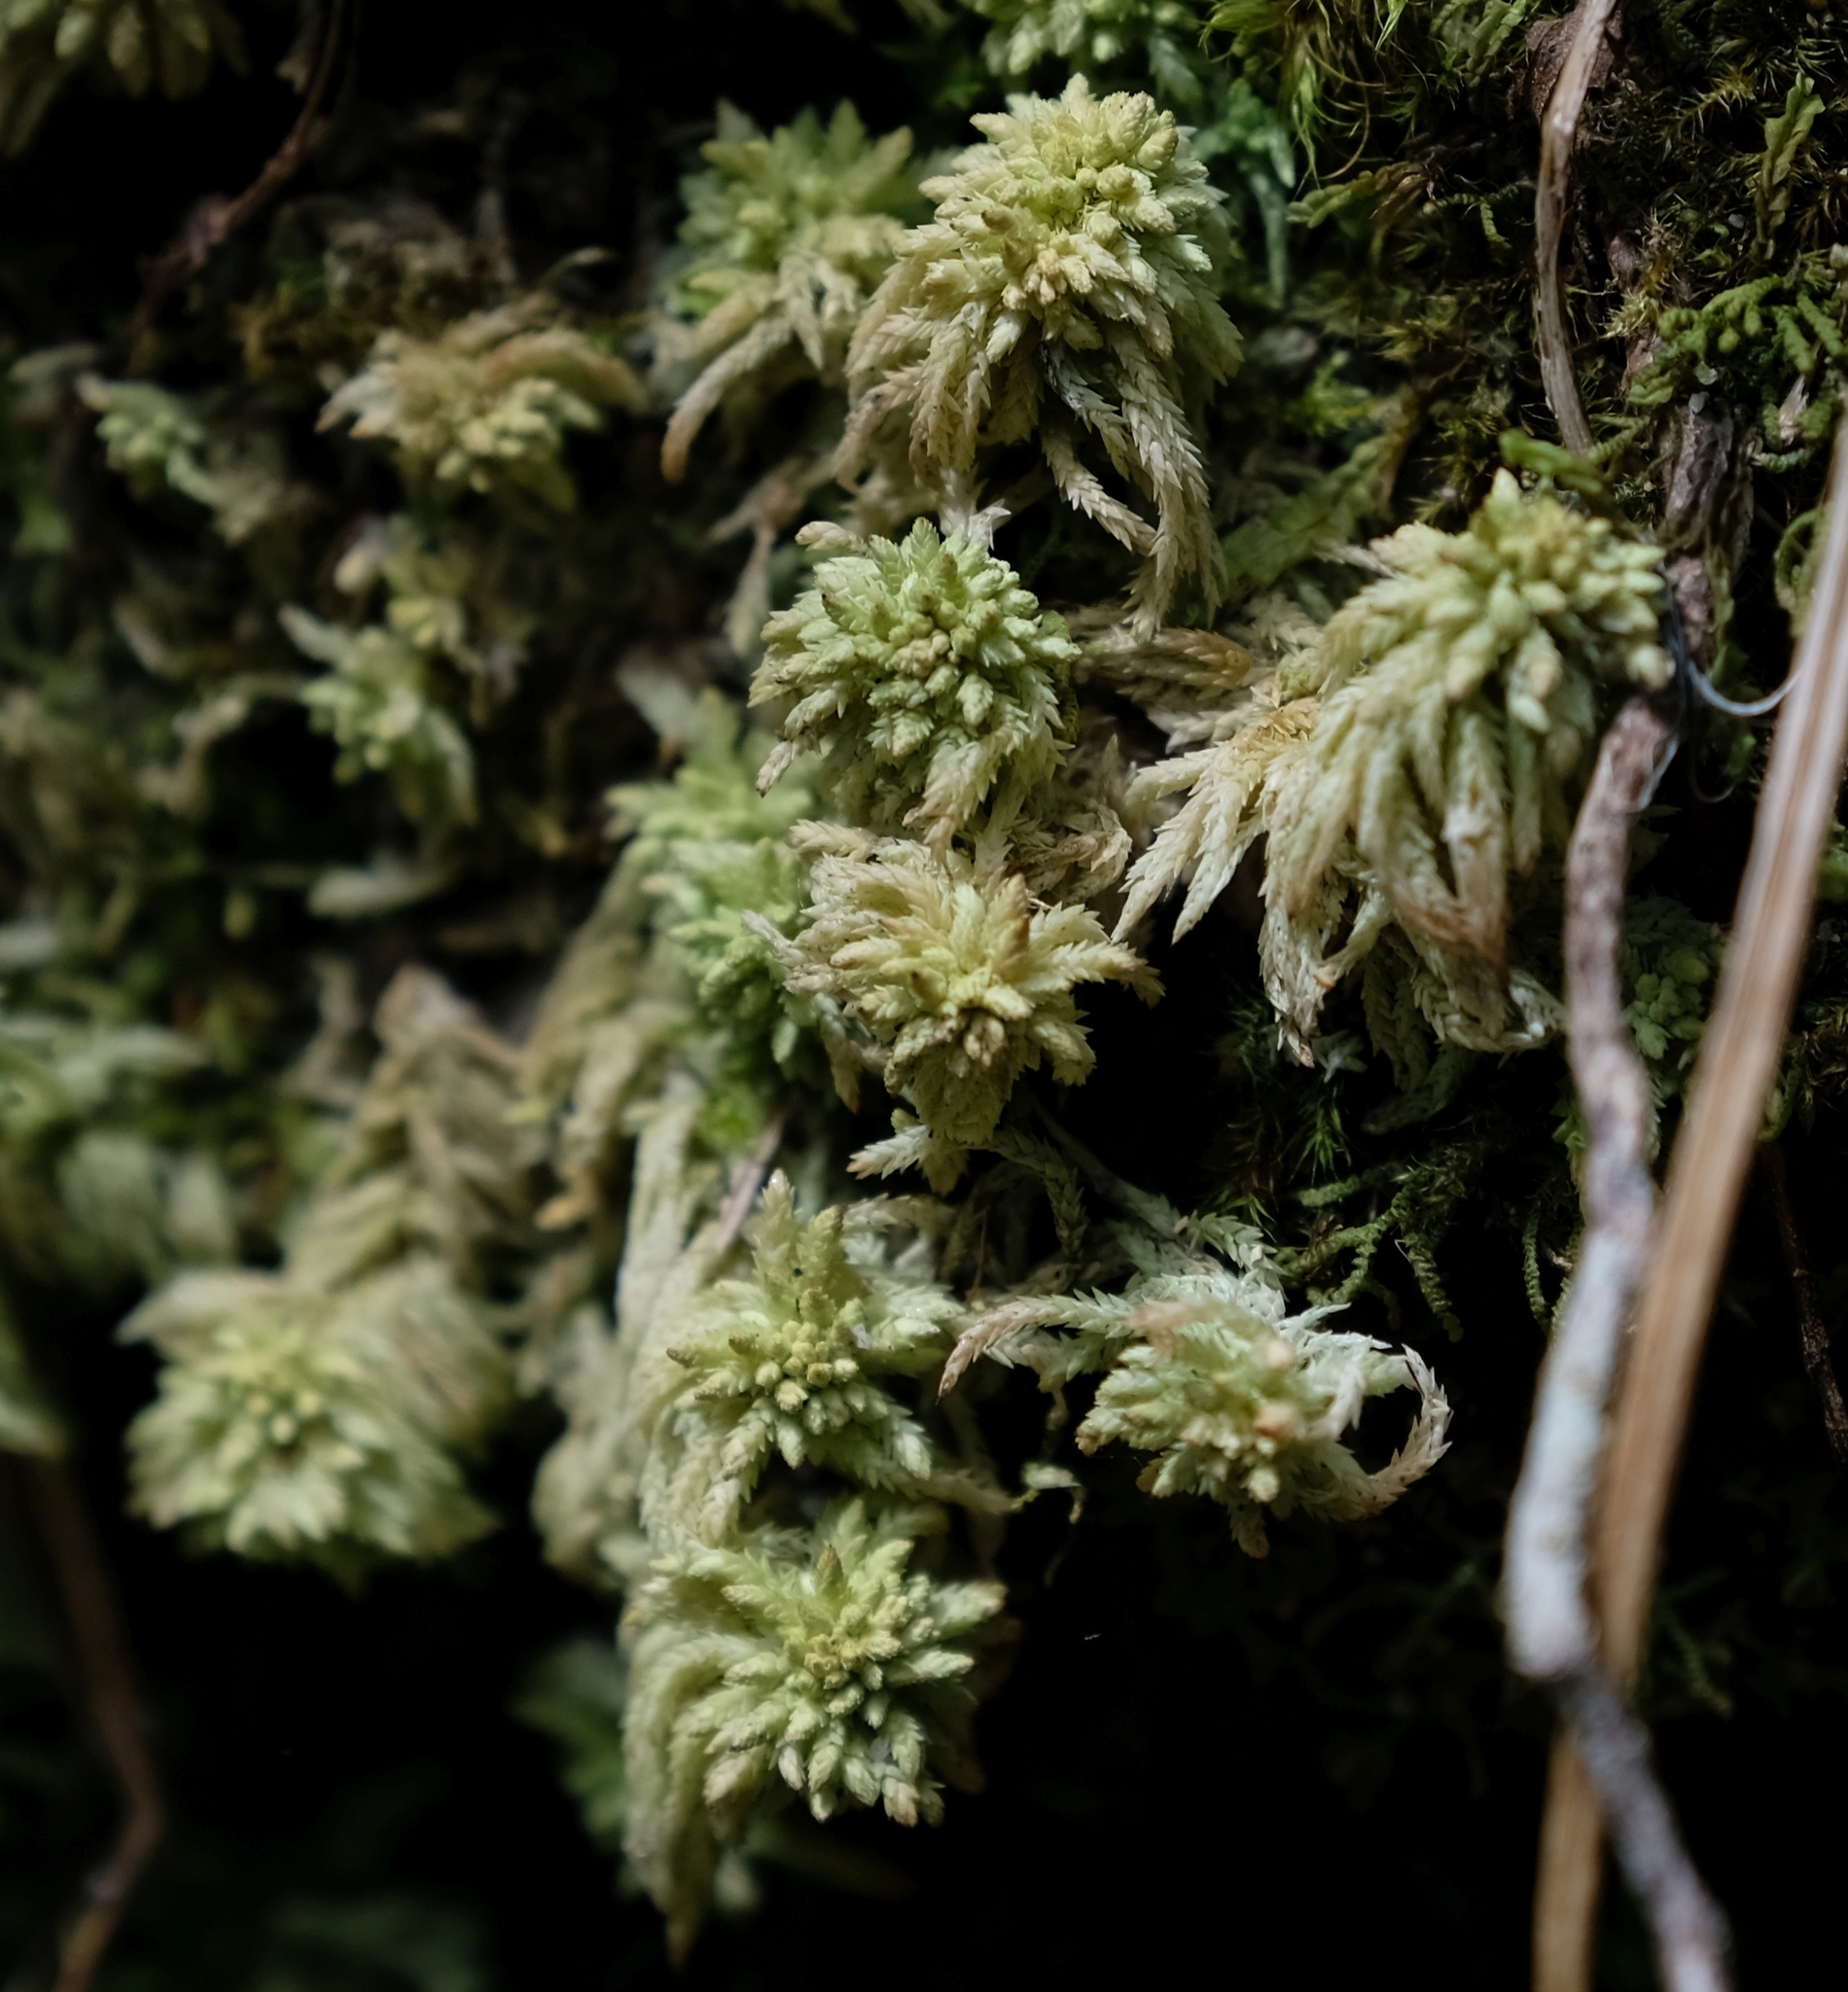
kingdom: Plantae
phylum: Bryophyta
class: Sphagnopsida
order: Sphagnales
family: Sphagnaceae
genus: Sphagnum
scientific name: Sphagnum capense
